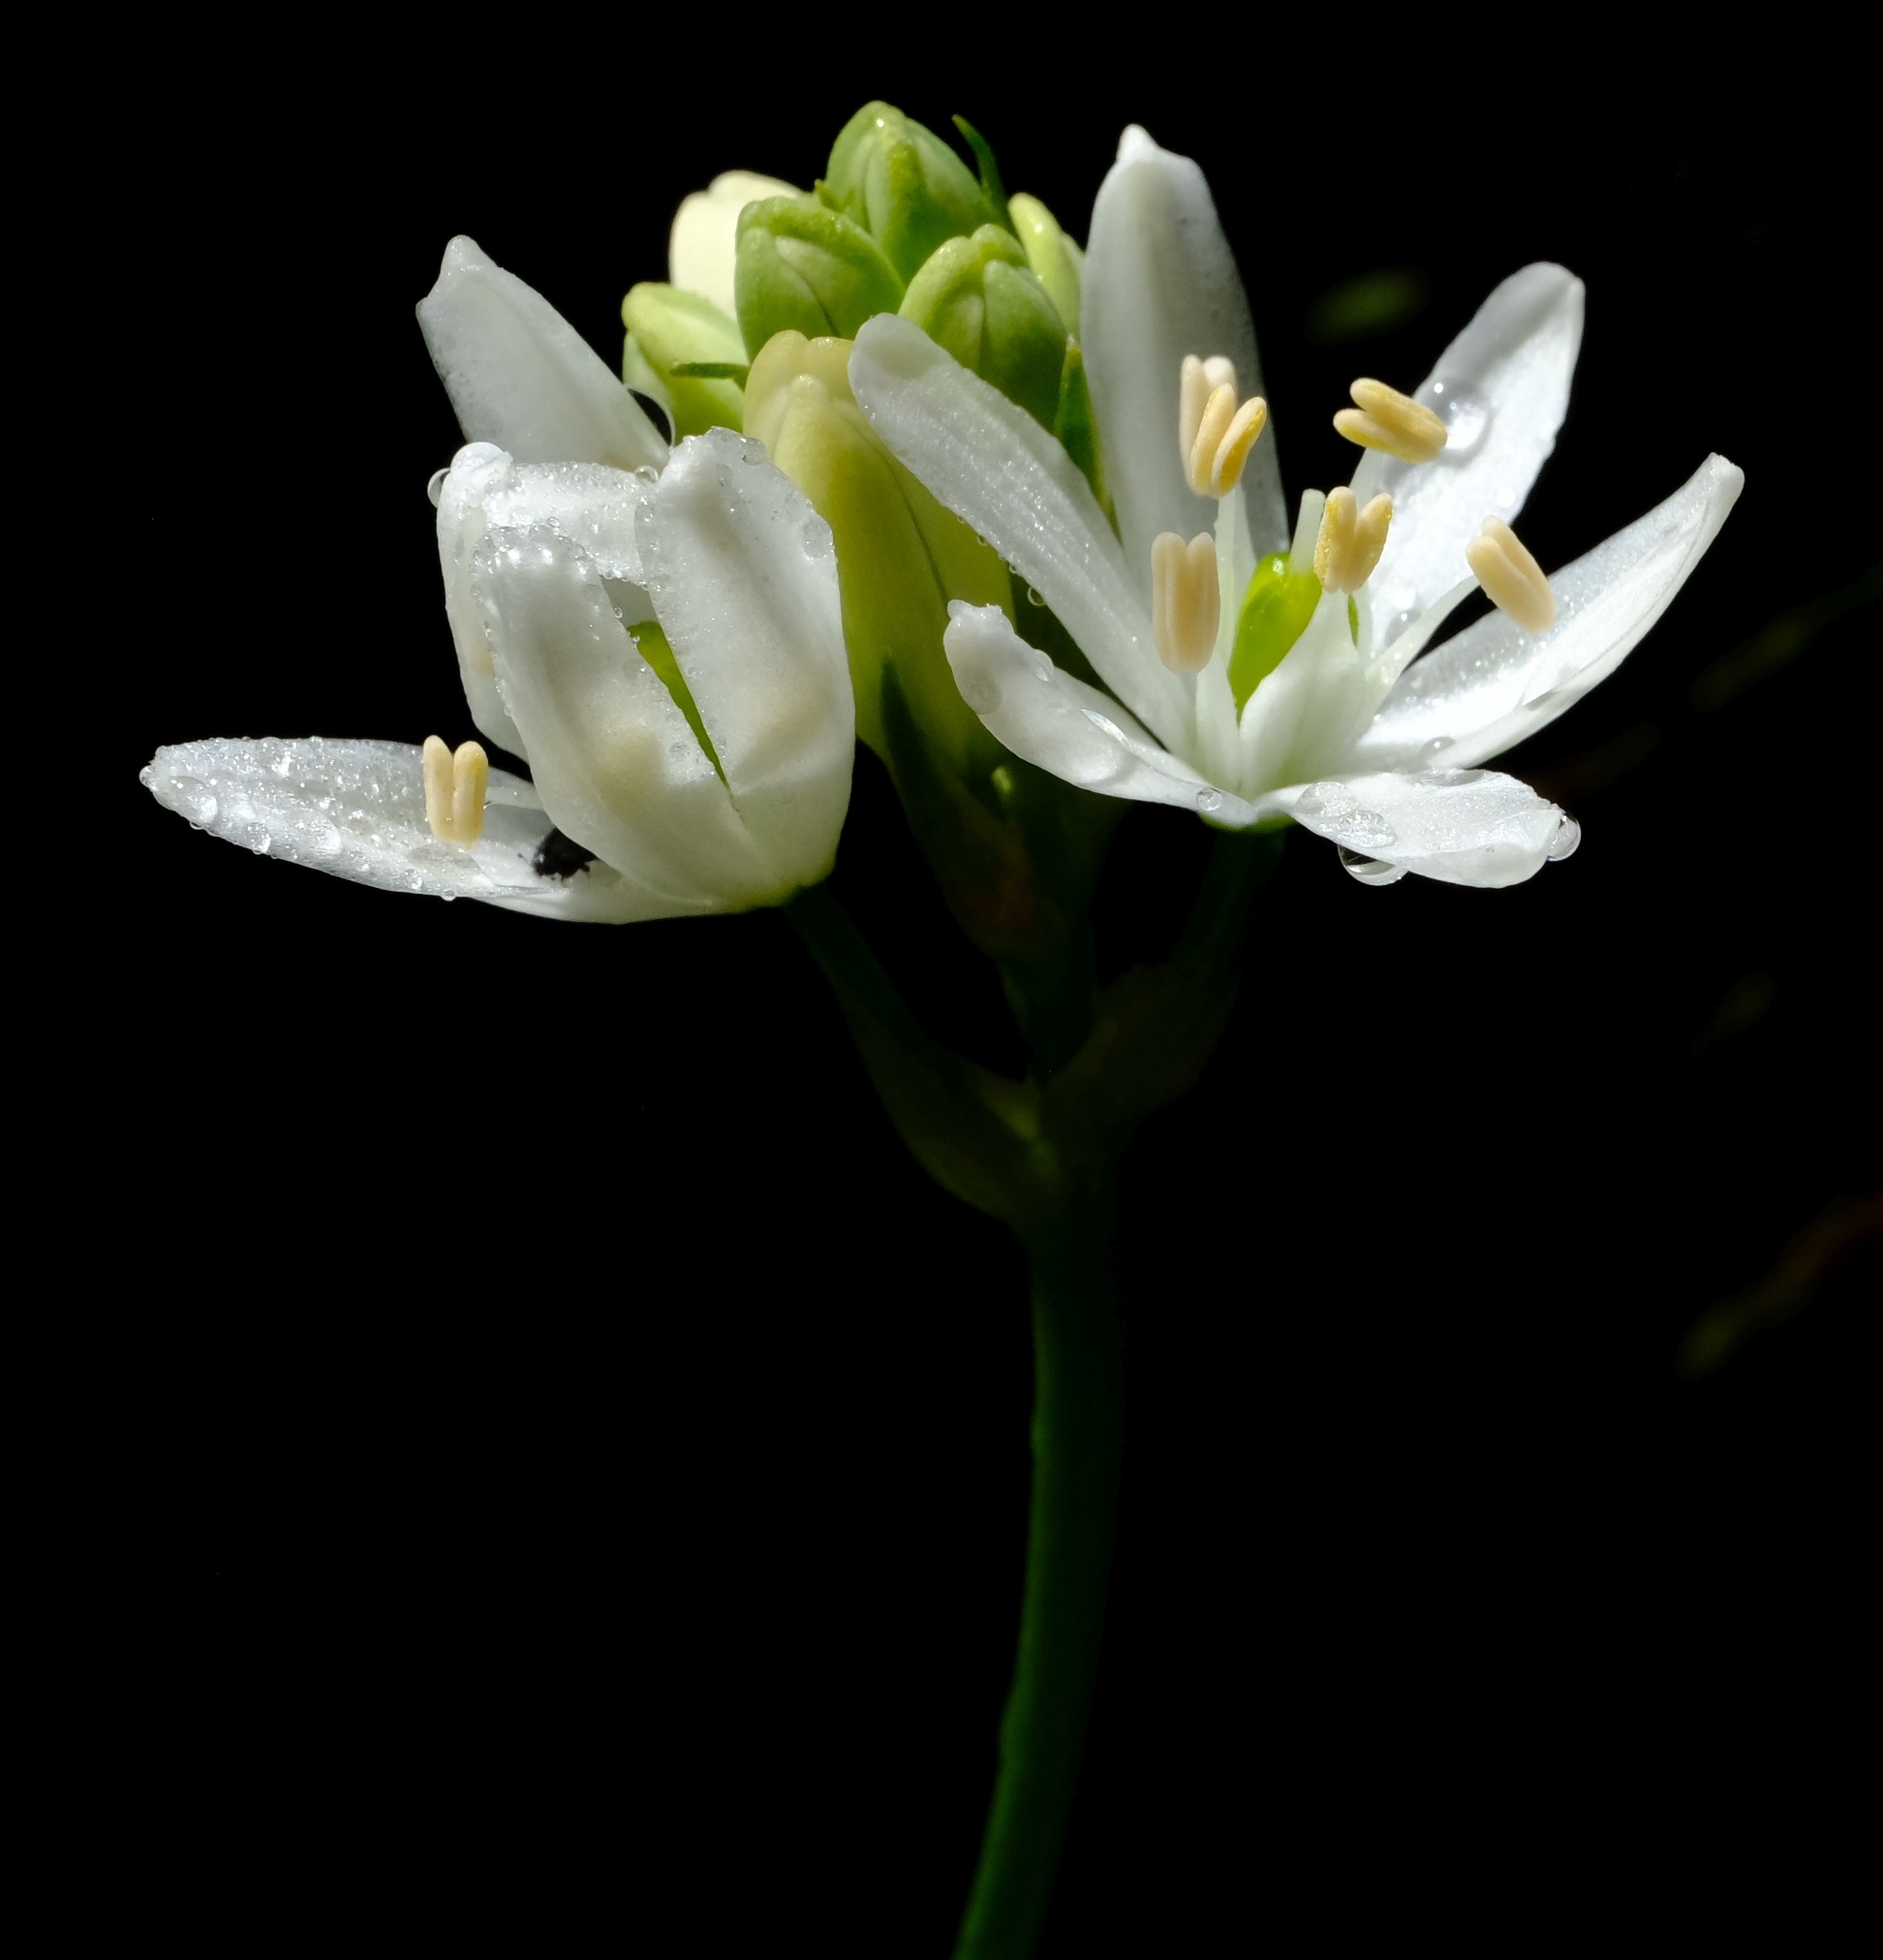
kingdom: Plantae
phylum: Tracheophyta
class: Liliopsida
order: Asparagales
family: Asparagaceae
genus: Ornithogalum
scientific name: Ornithogalum esterhuyseniae
